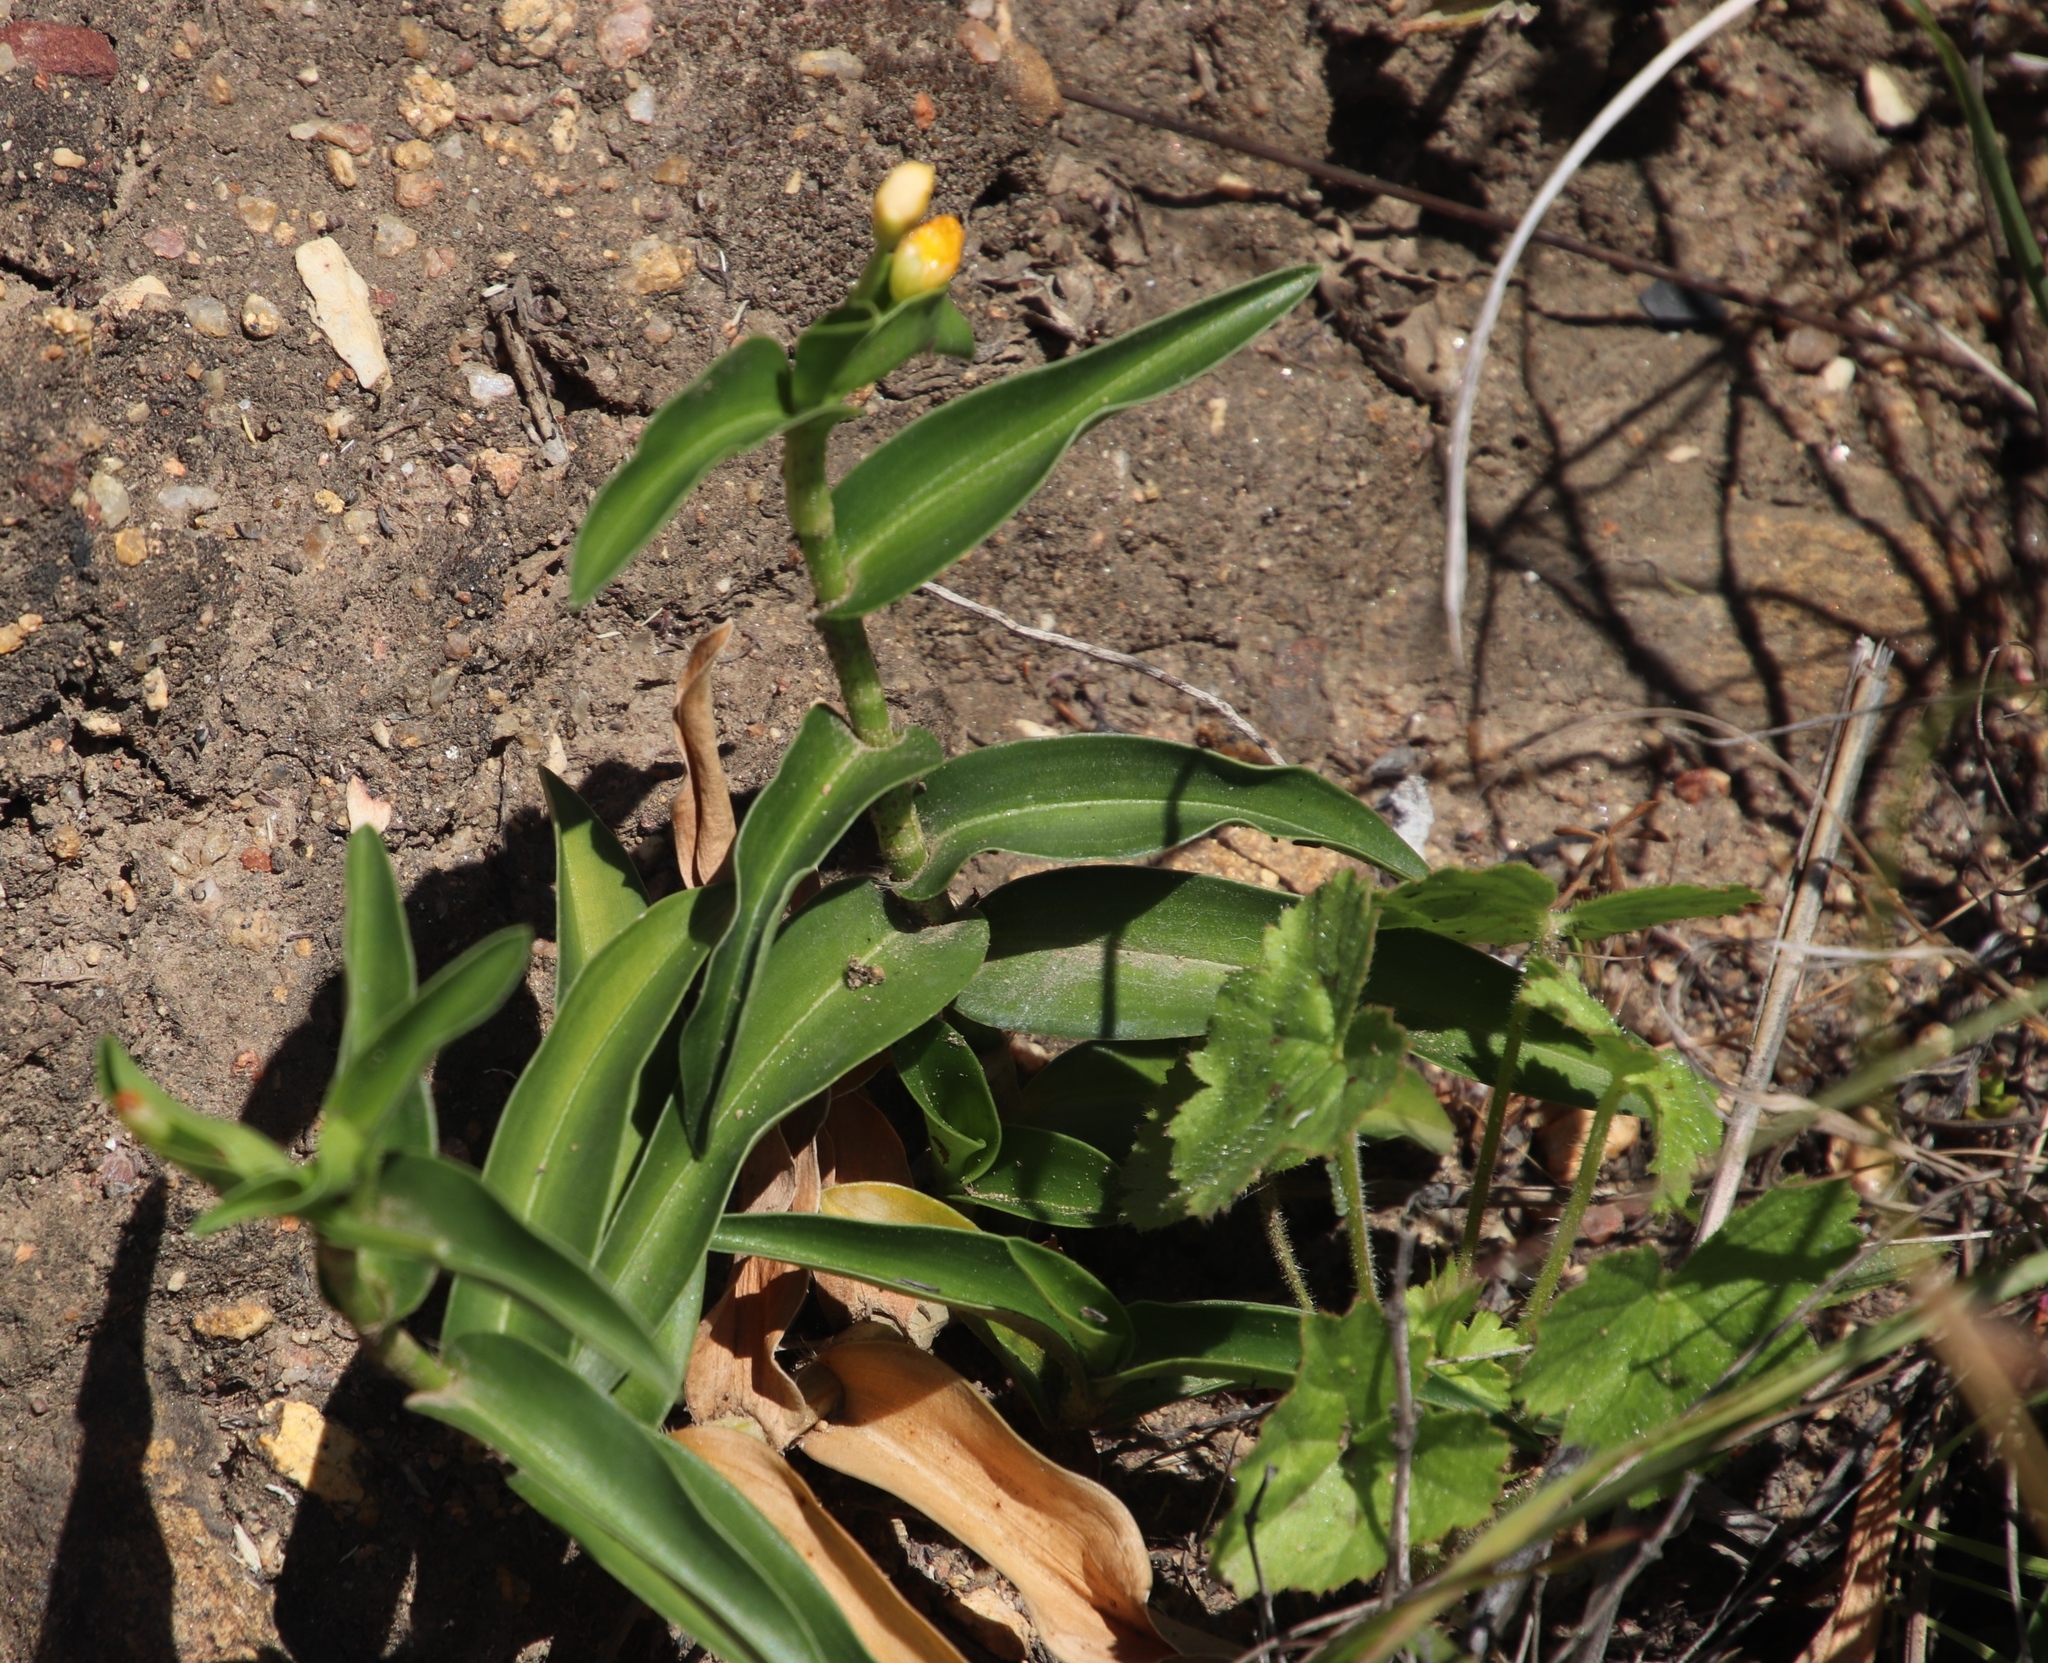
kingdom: Plantae
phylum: Tracheophyta
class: Liliopsida
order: Commelinales
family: Commelinaceae
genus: Commelina
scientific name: Commelina africana
